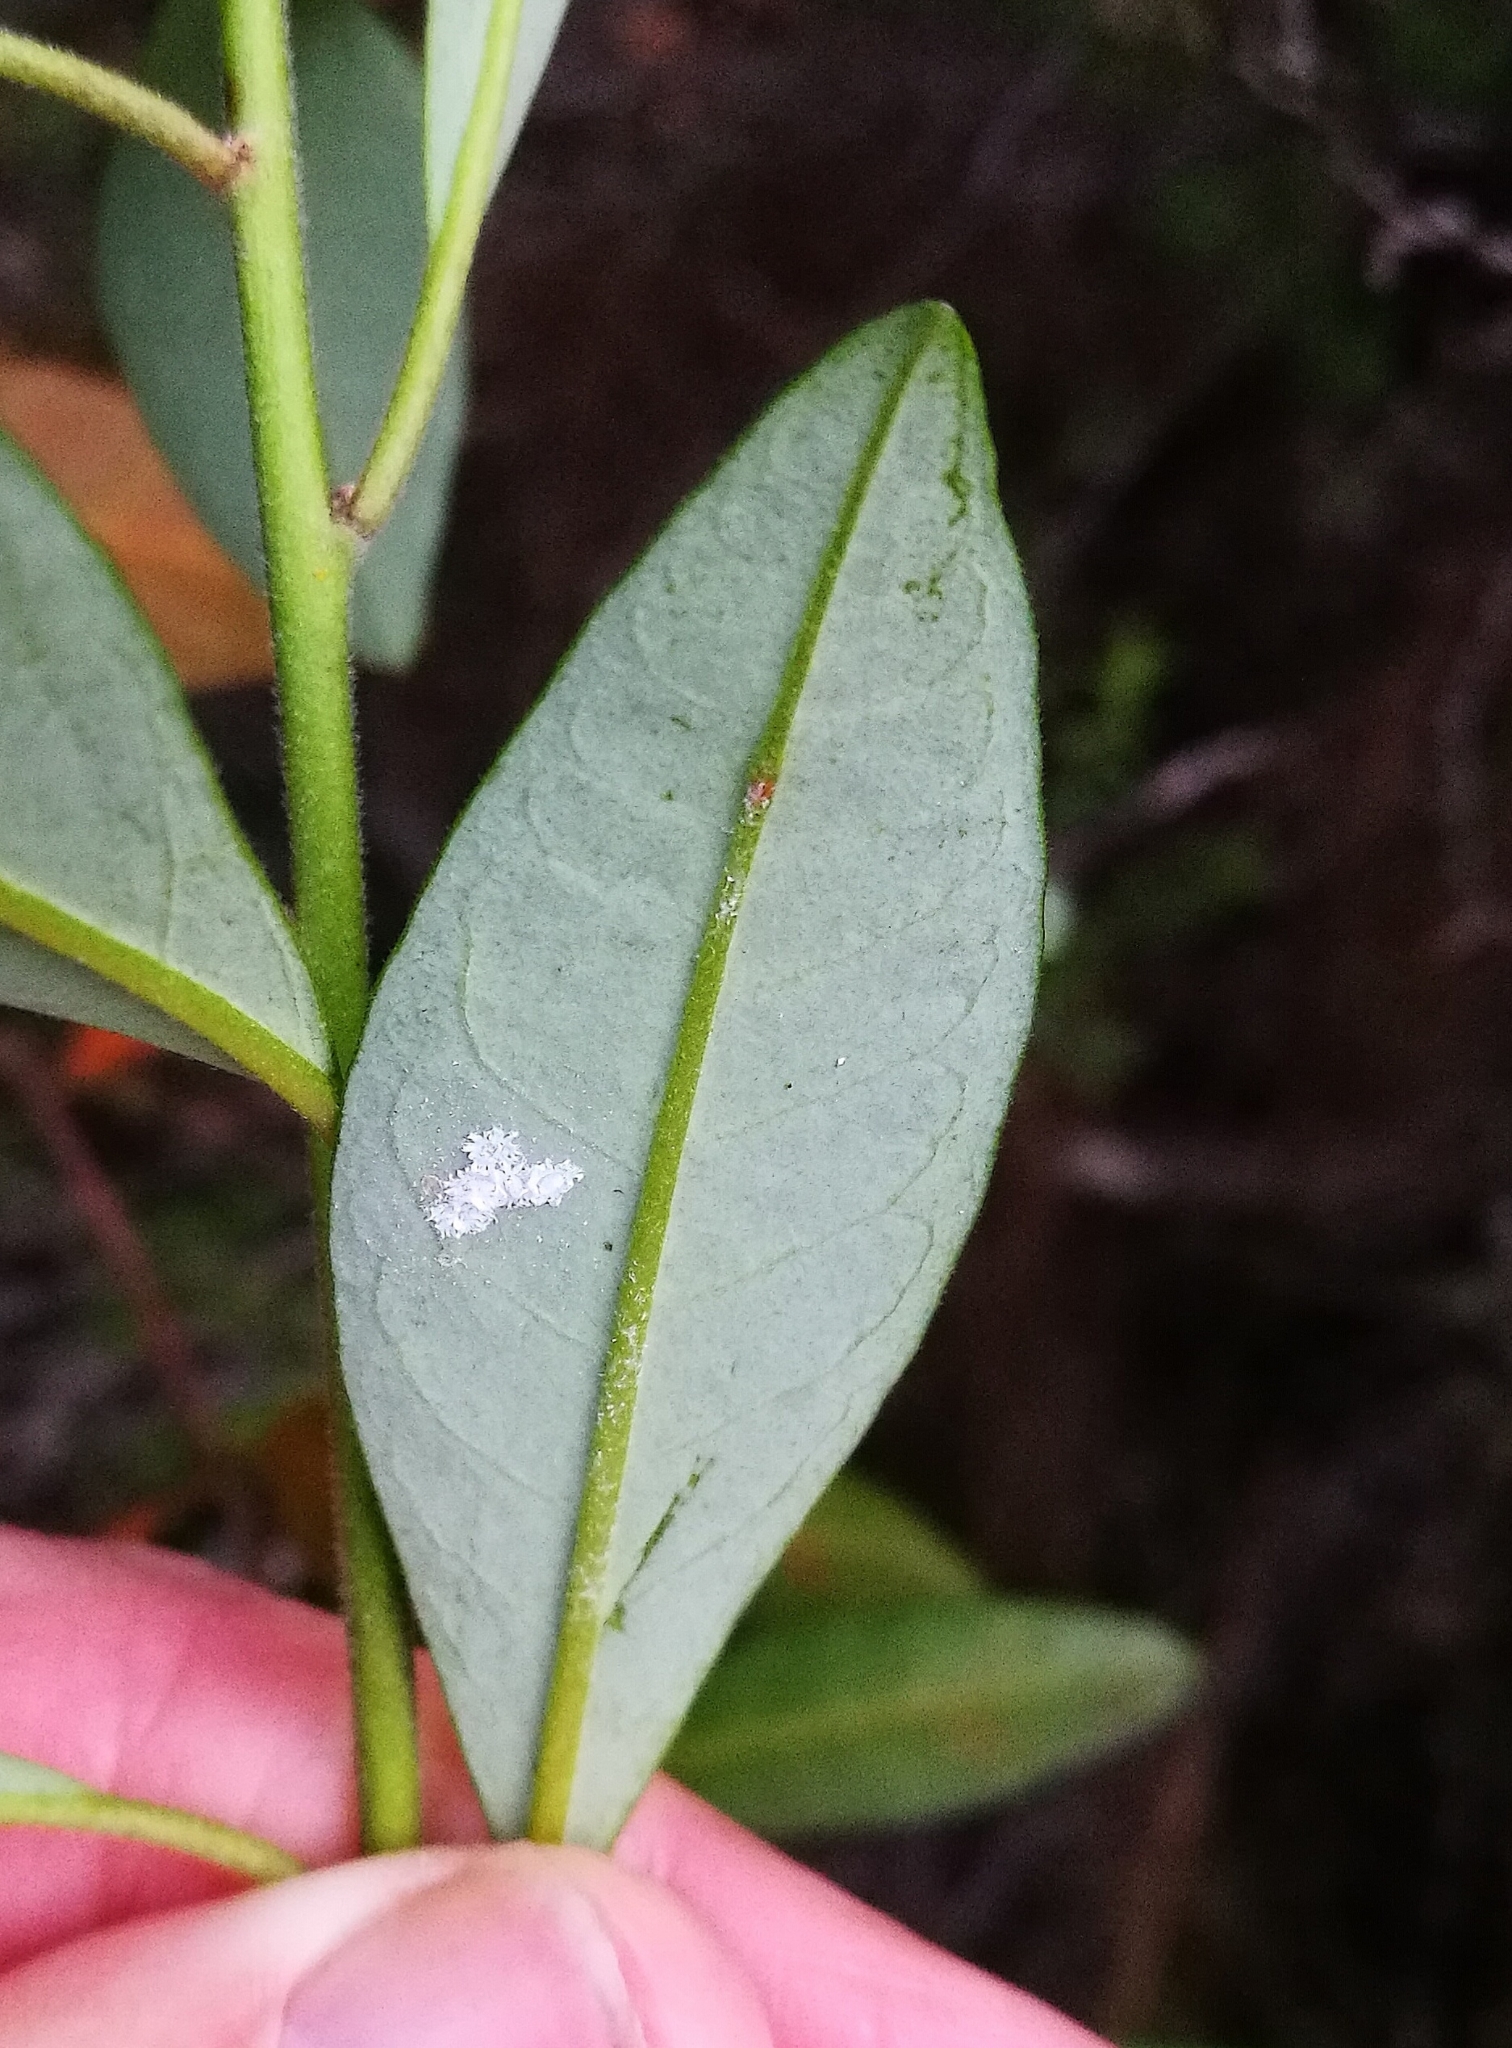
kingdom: Plantae
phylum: Tracheophyta
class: Magnoliopsida
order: Malpighiales
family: Peraceae
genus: Clutia
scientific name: Clutia affinis
